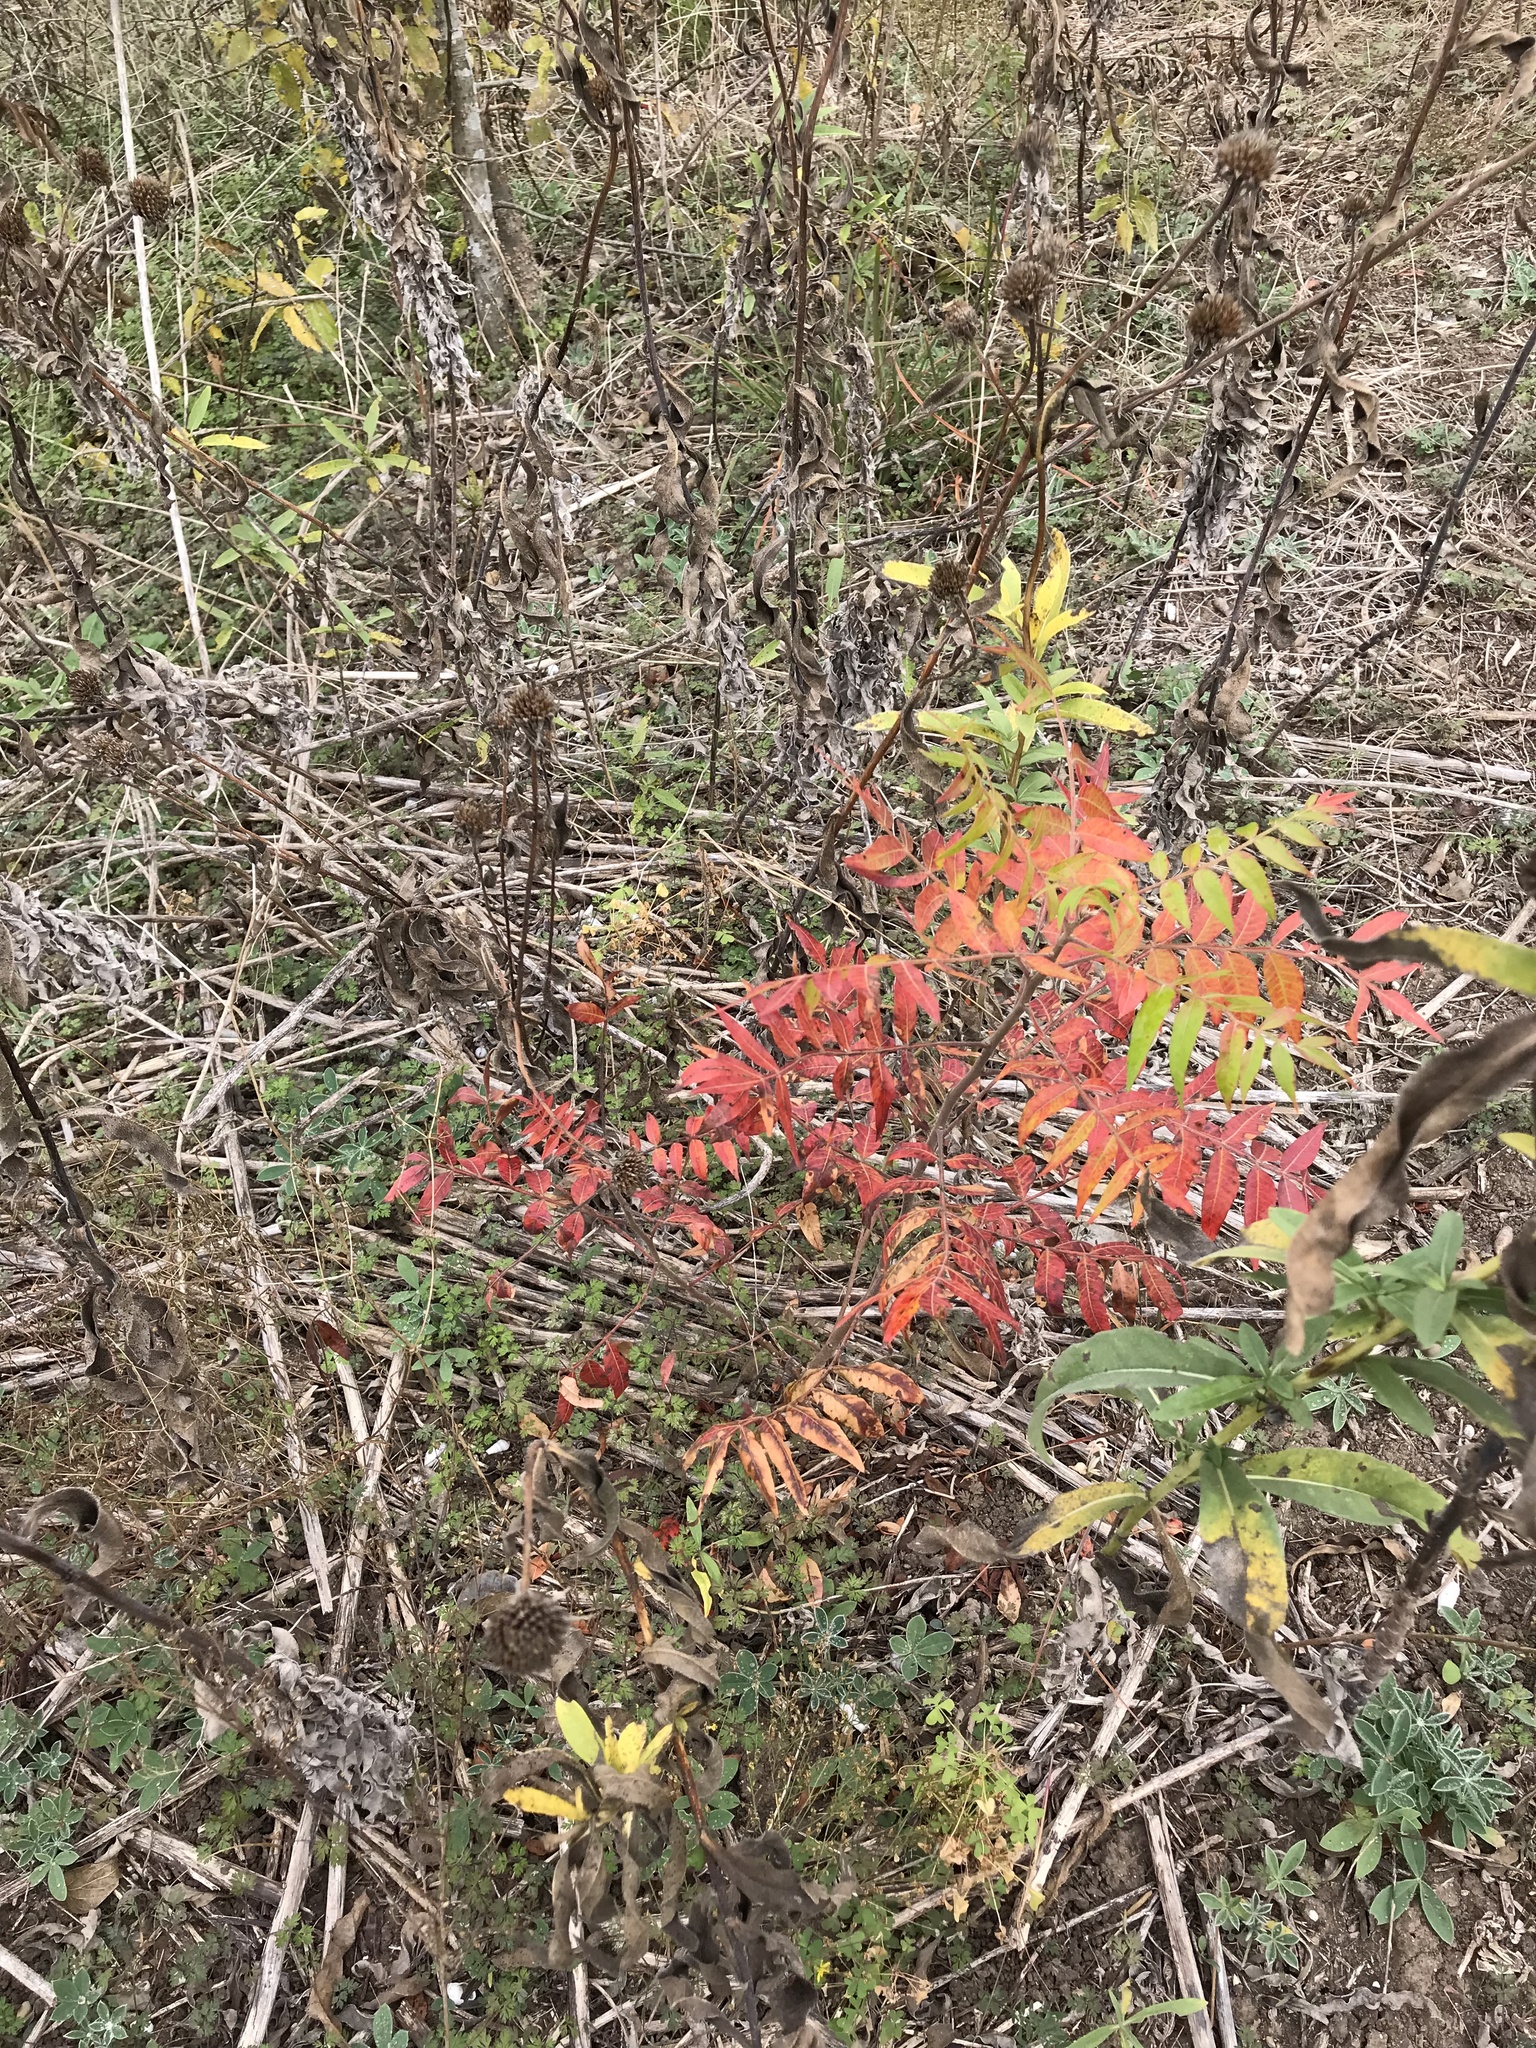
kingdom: Plantae
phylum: Tracheophyta
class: Magnoliopsida
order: Sapindales
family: Anacardiaceae
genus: Rhus
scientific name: Rhus lanceolata
